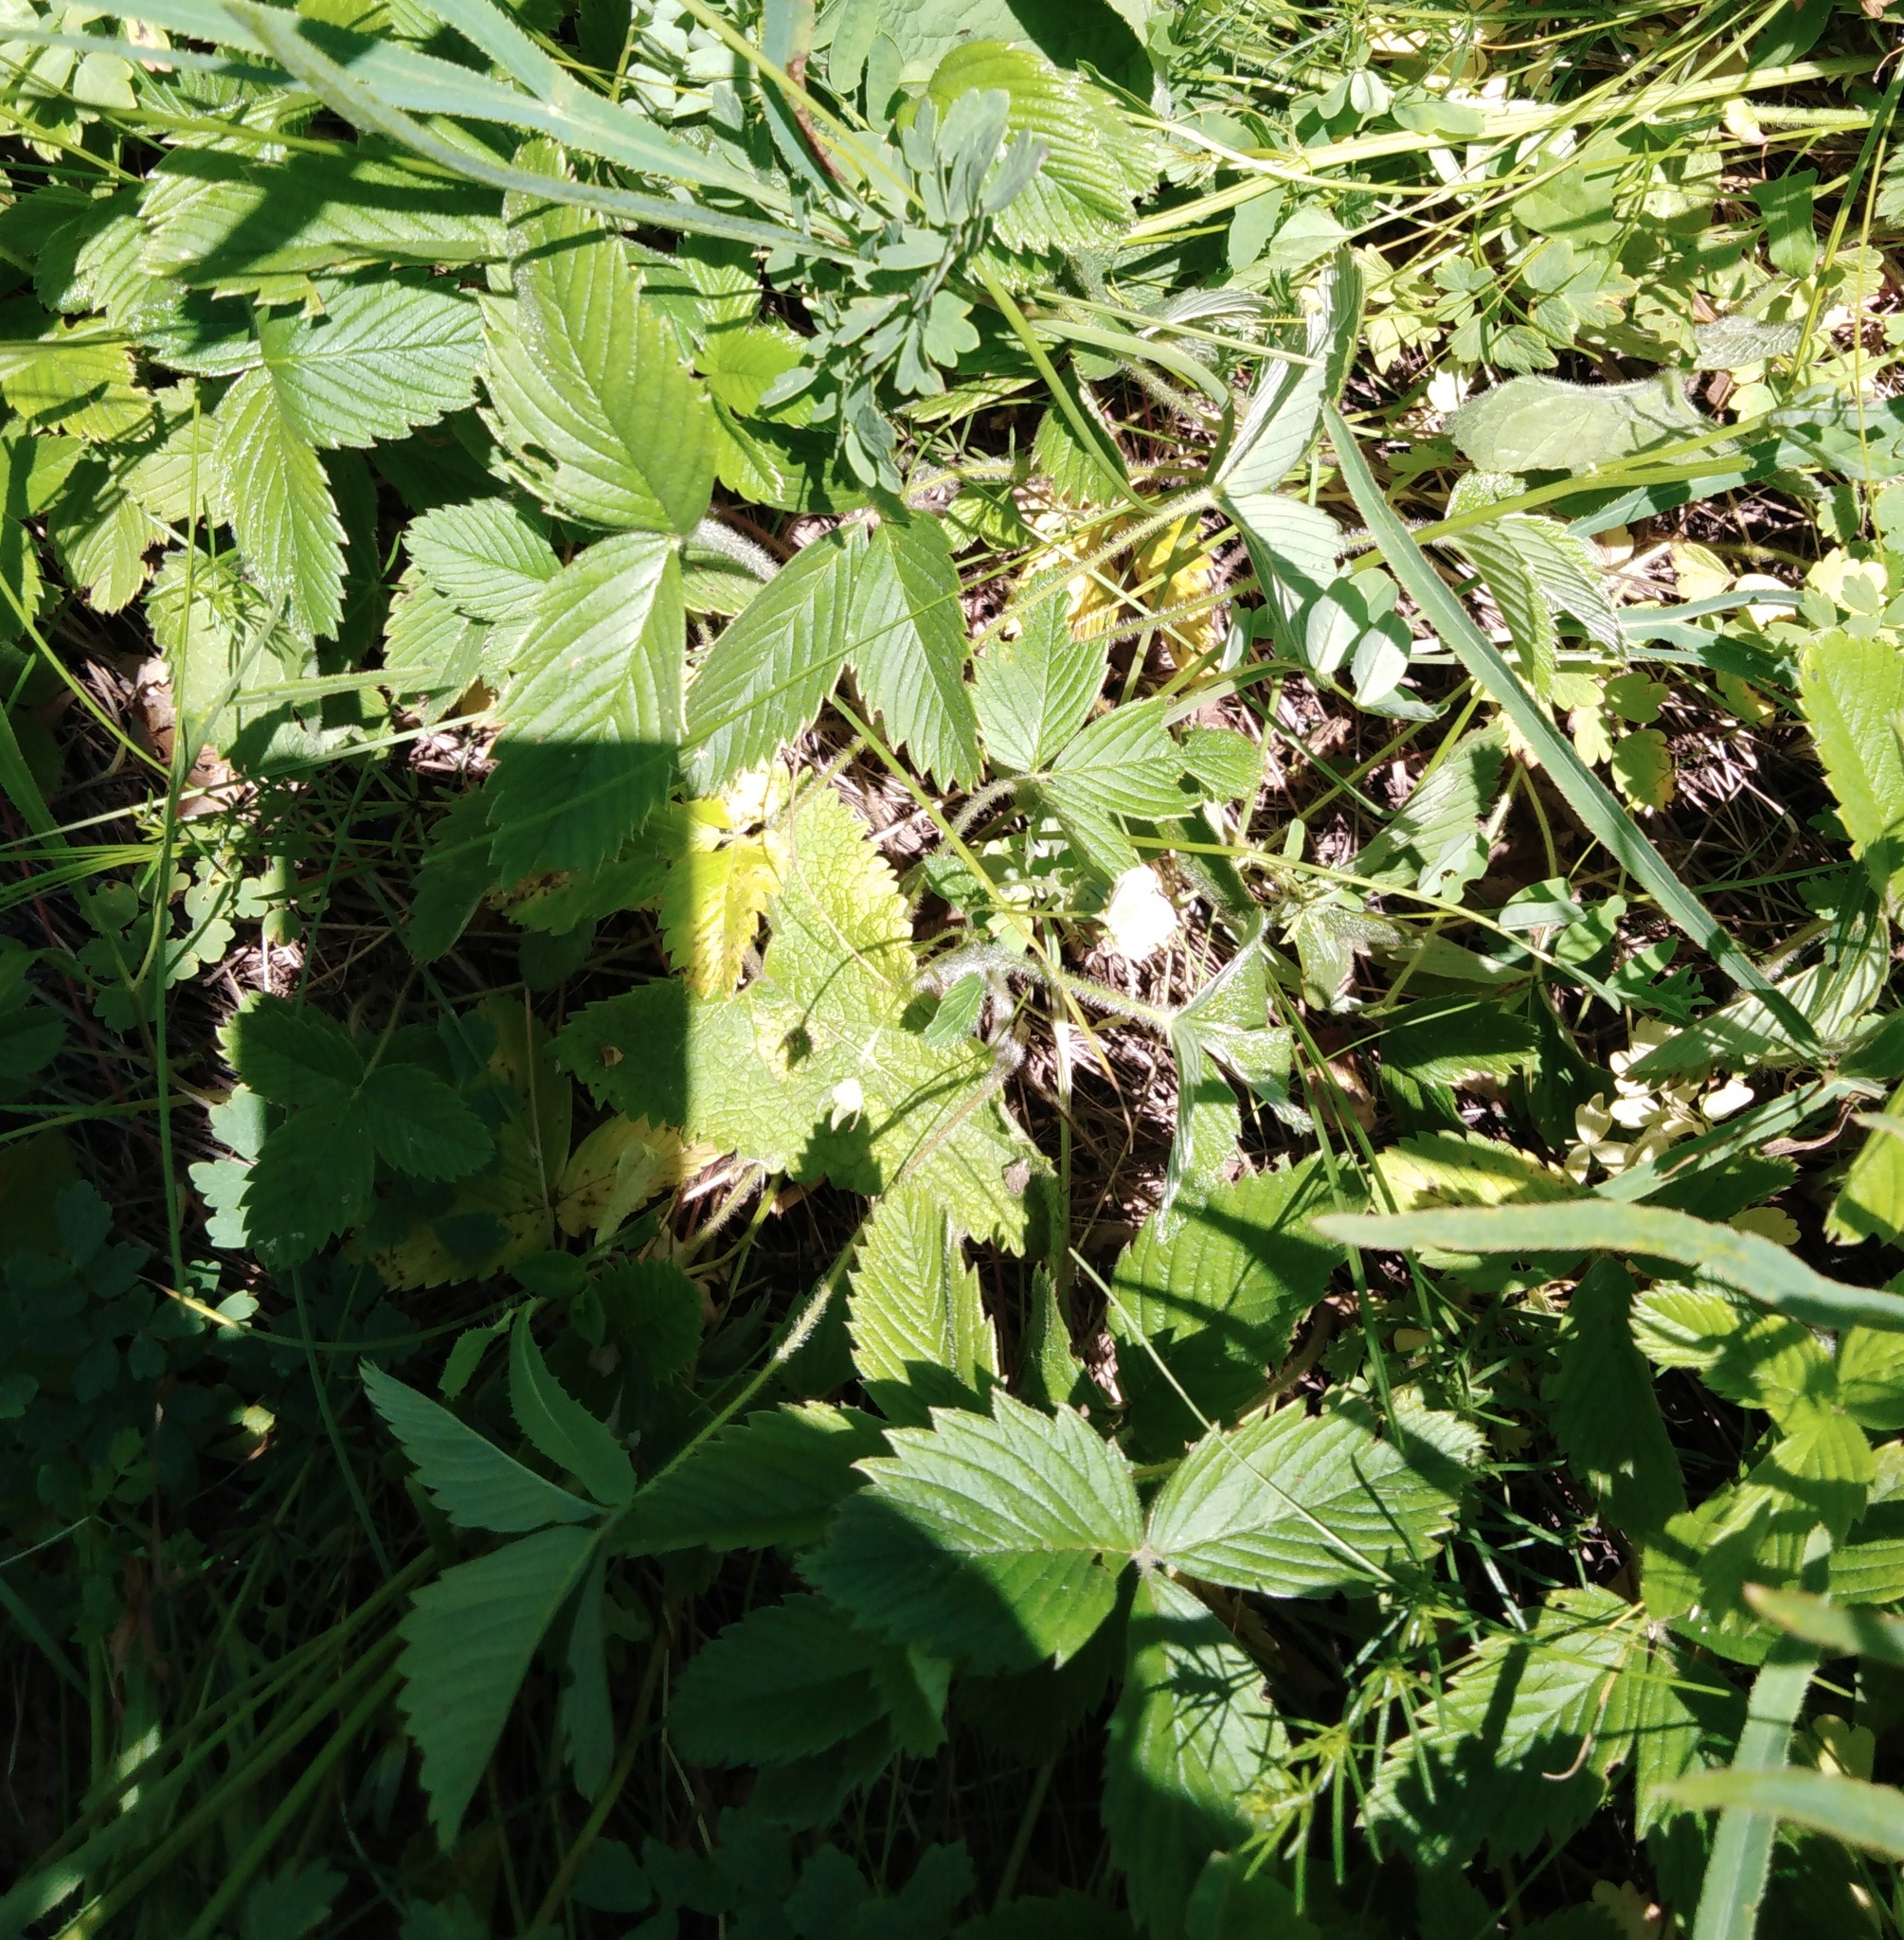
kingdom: Plantae
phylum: Tracheophyta
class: Magnoliopsida
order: Rosales
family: Rosaceae
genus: Fragaria
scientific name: Fragaria viridis
